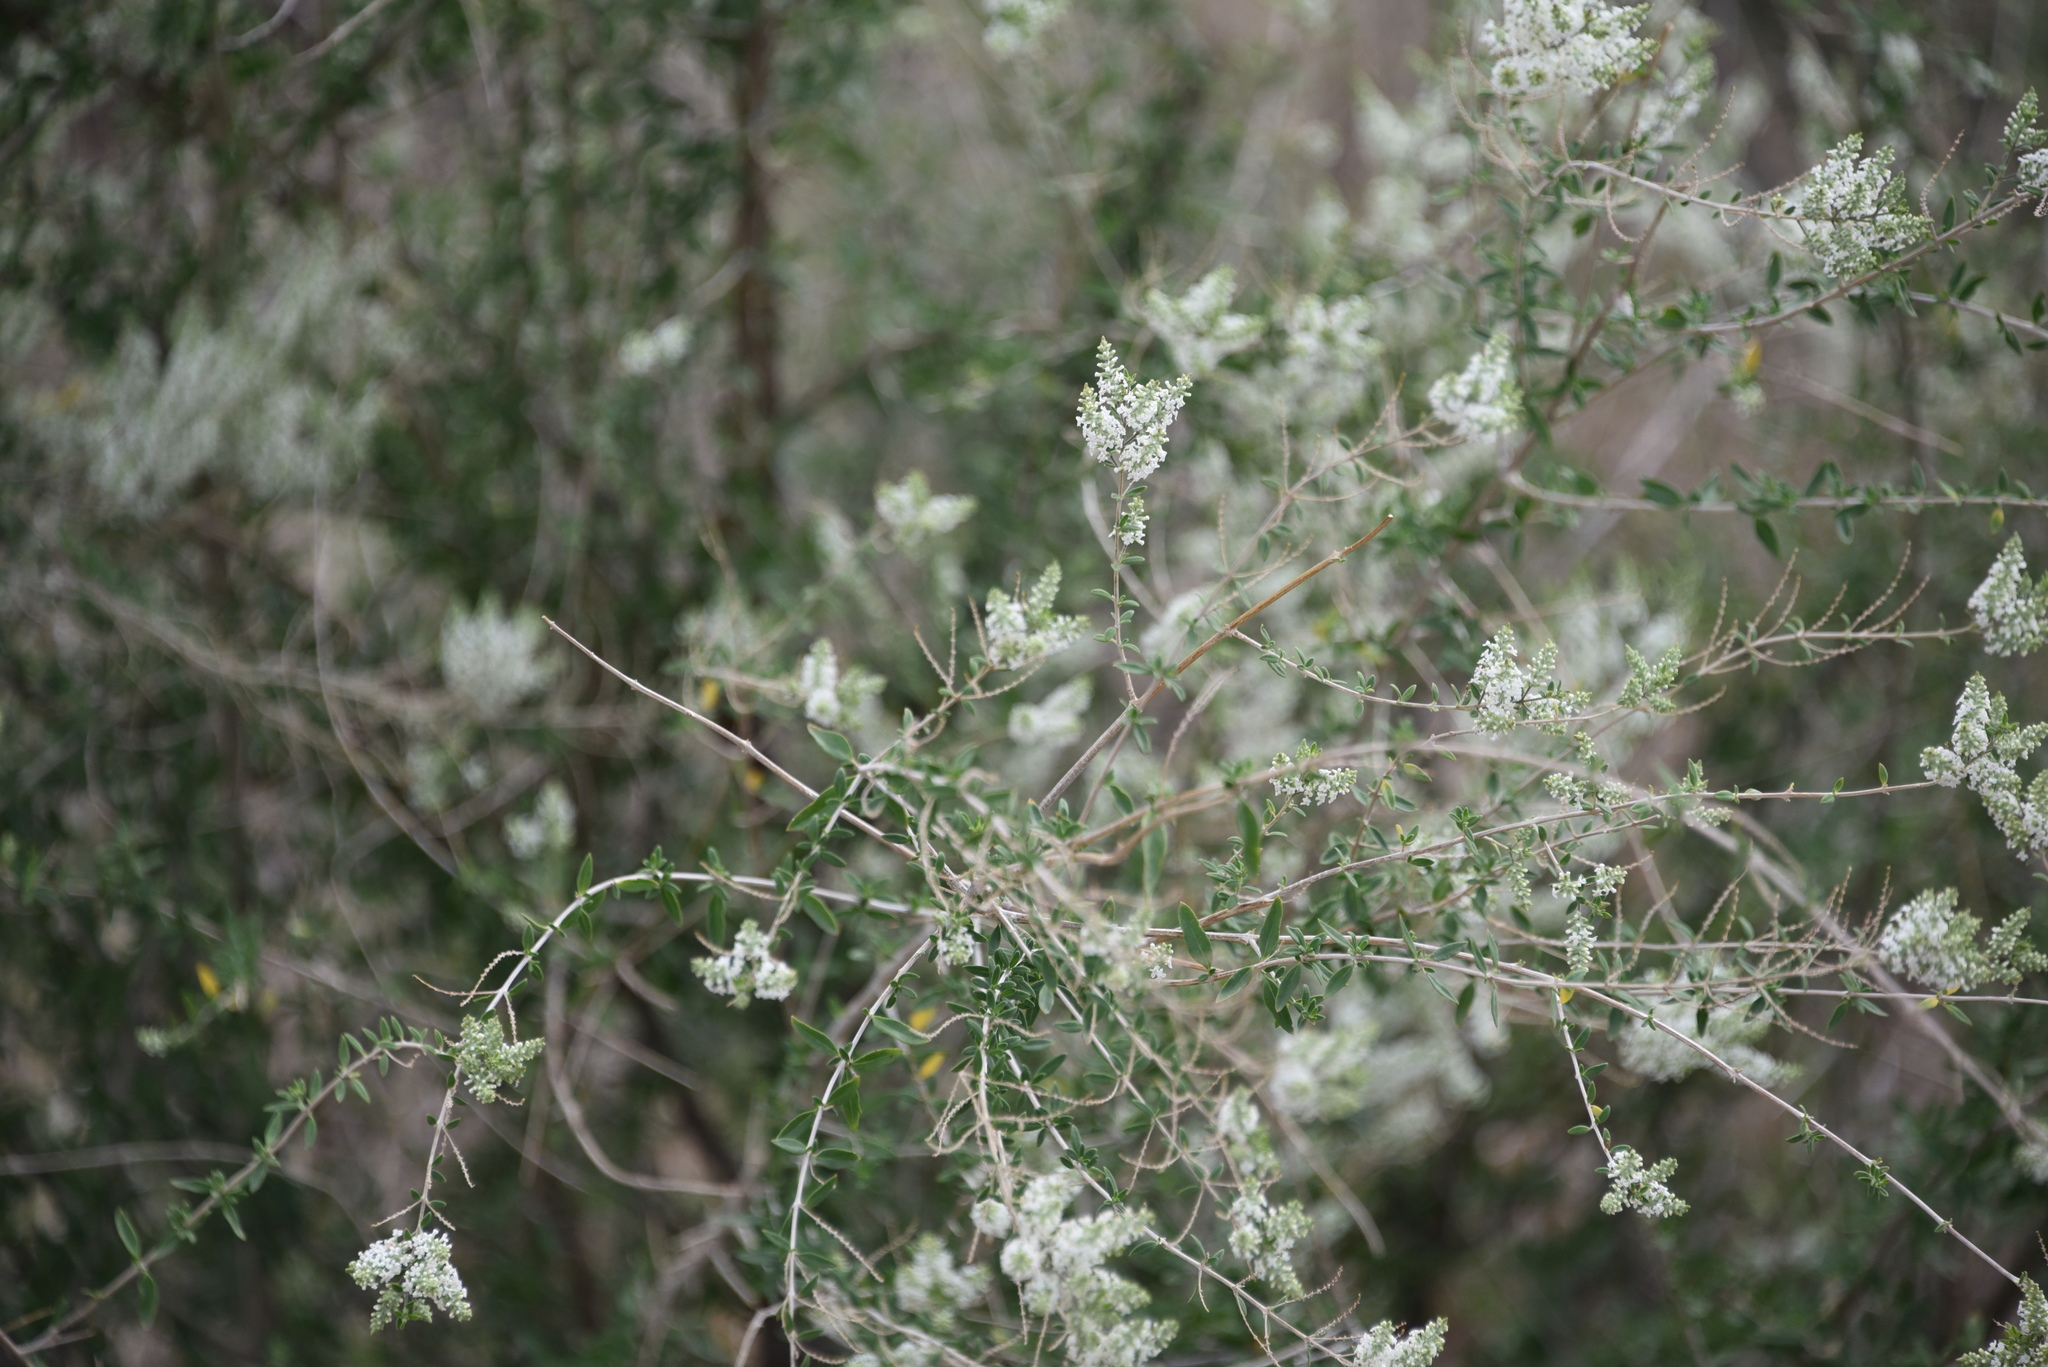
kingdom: Plantae
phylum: Tracheophyta
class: Magnoliopsida
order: Lamiales
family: Verbenaceae
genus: Aloysia
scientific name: Aloysia gratissima
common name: Common bee-brush
